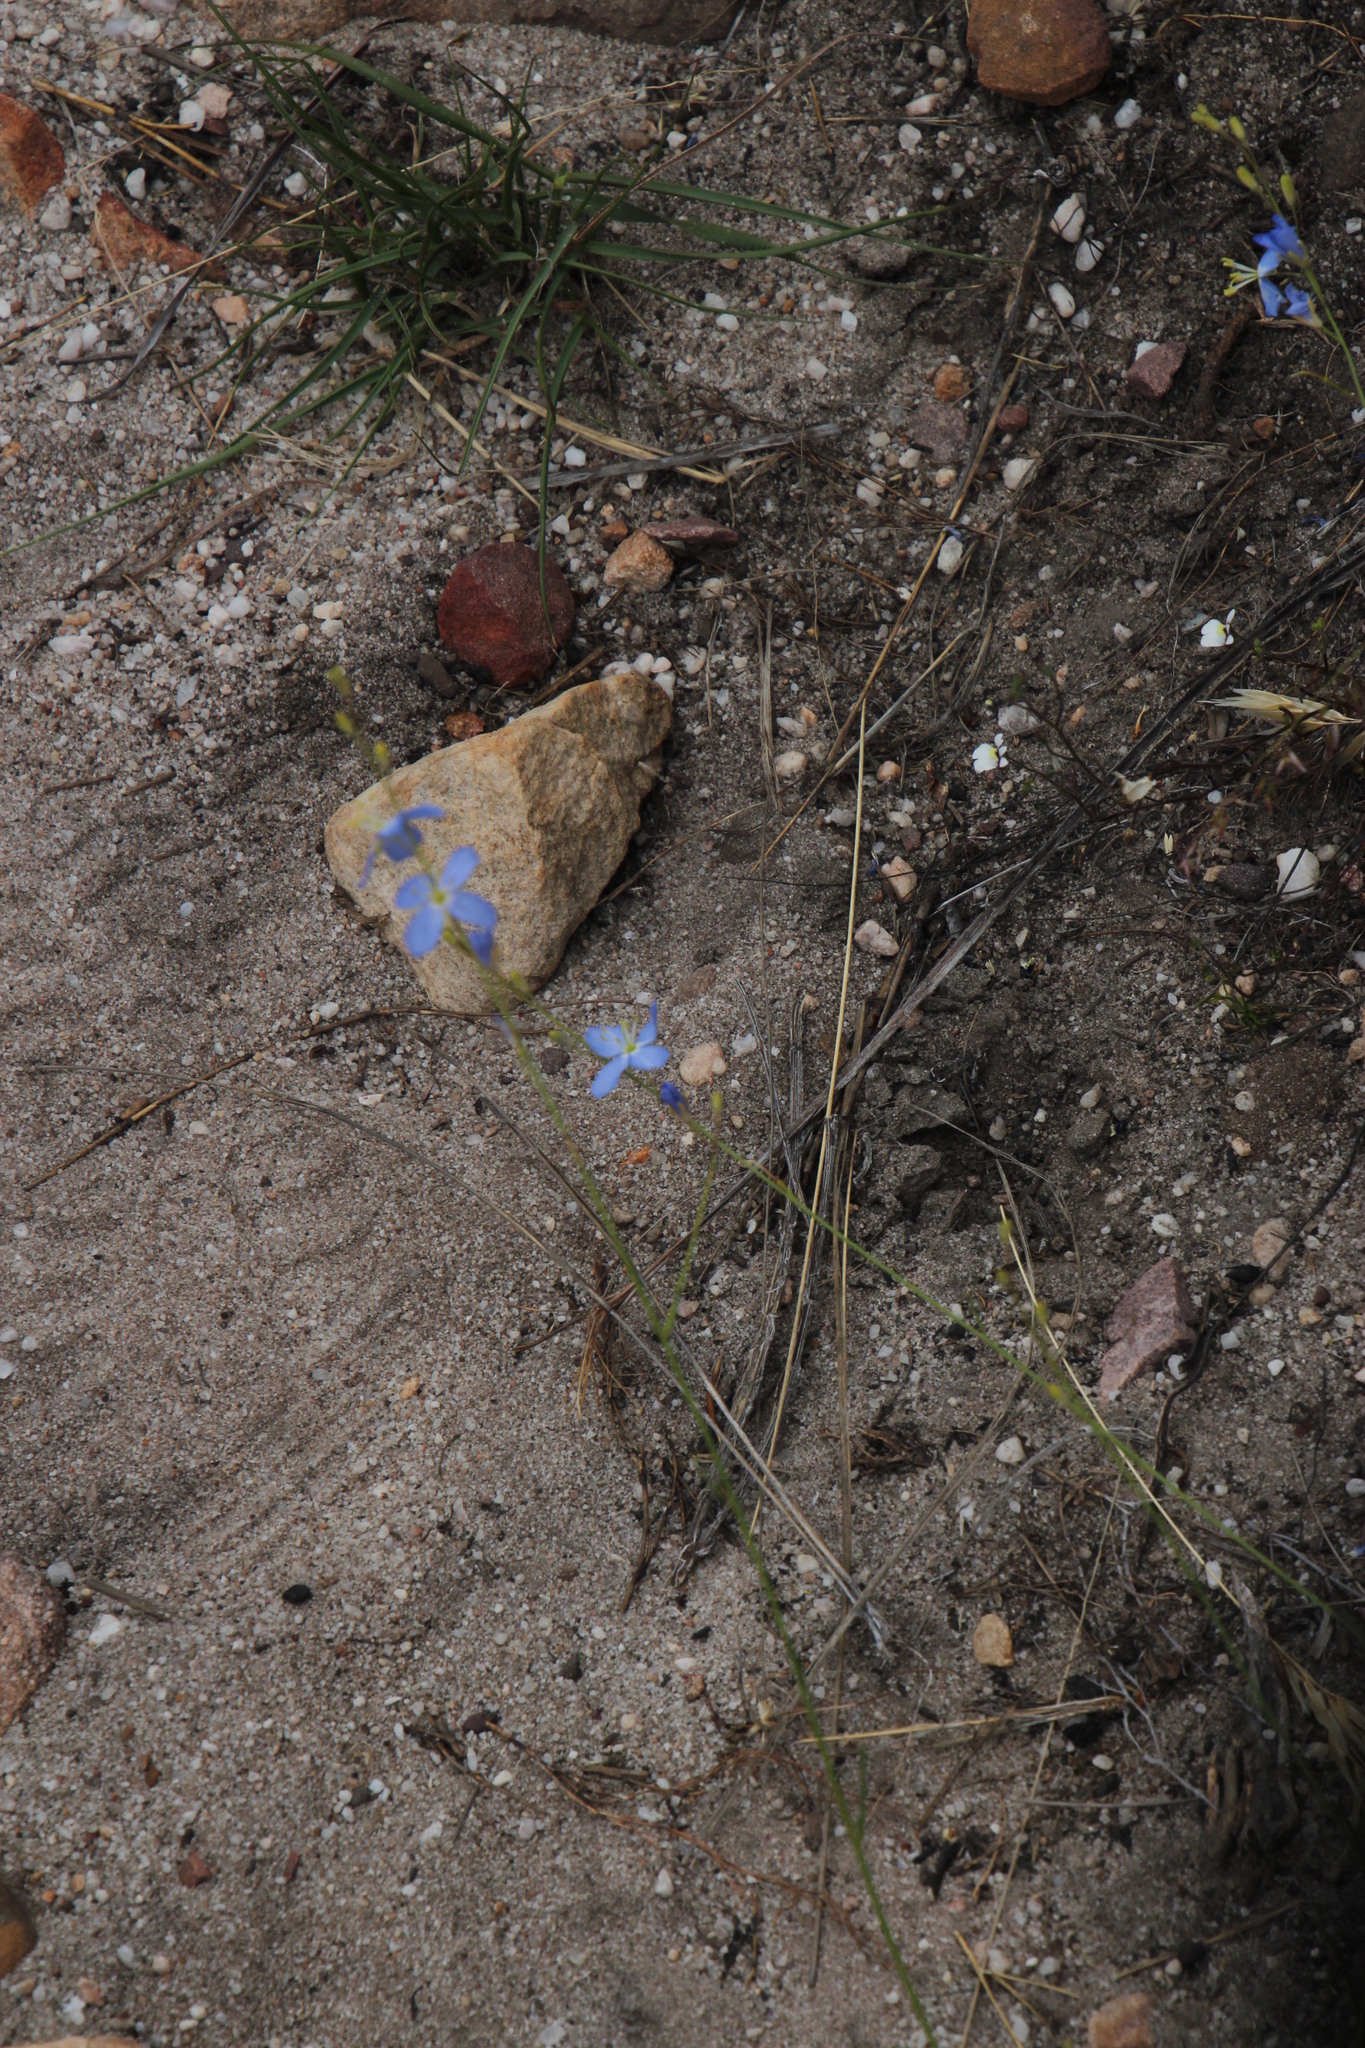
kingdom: Plantae
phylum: Tracheophyta
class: Magnoliopsida
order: Brassicales
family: Brassicaceae
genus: Heliophila
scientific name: Heliophila elata
